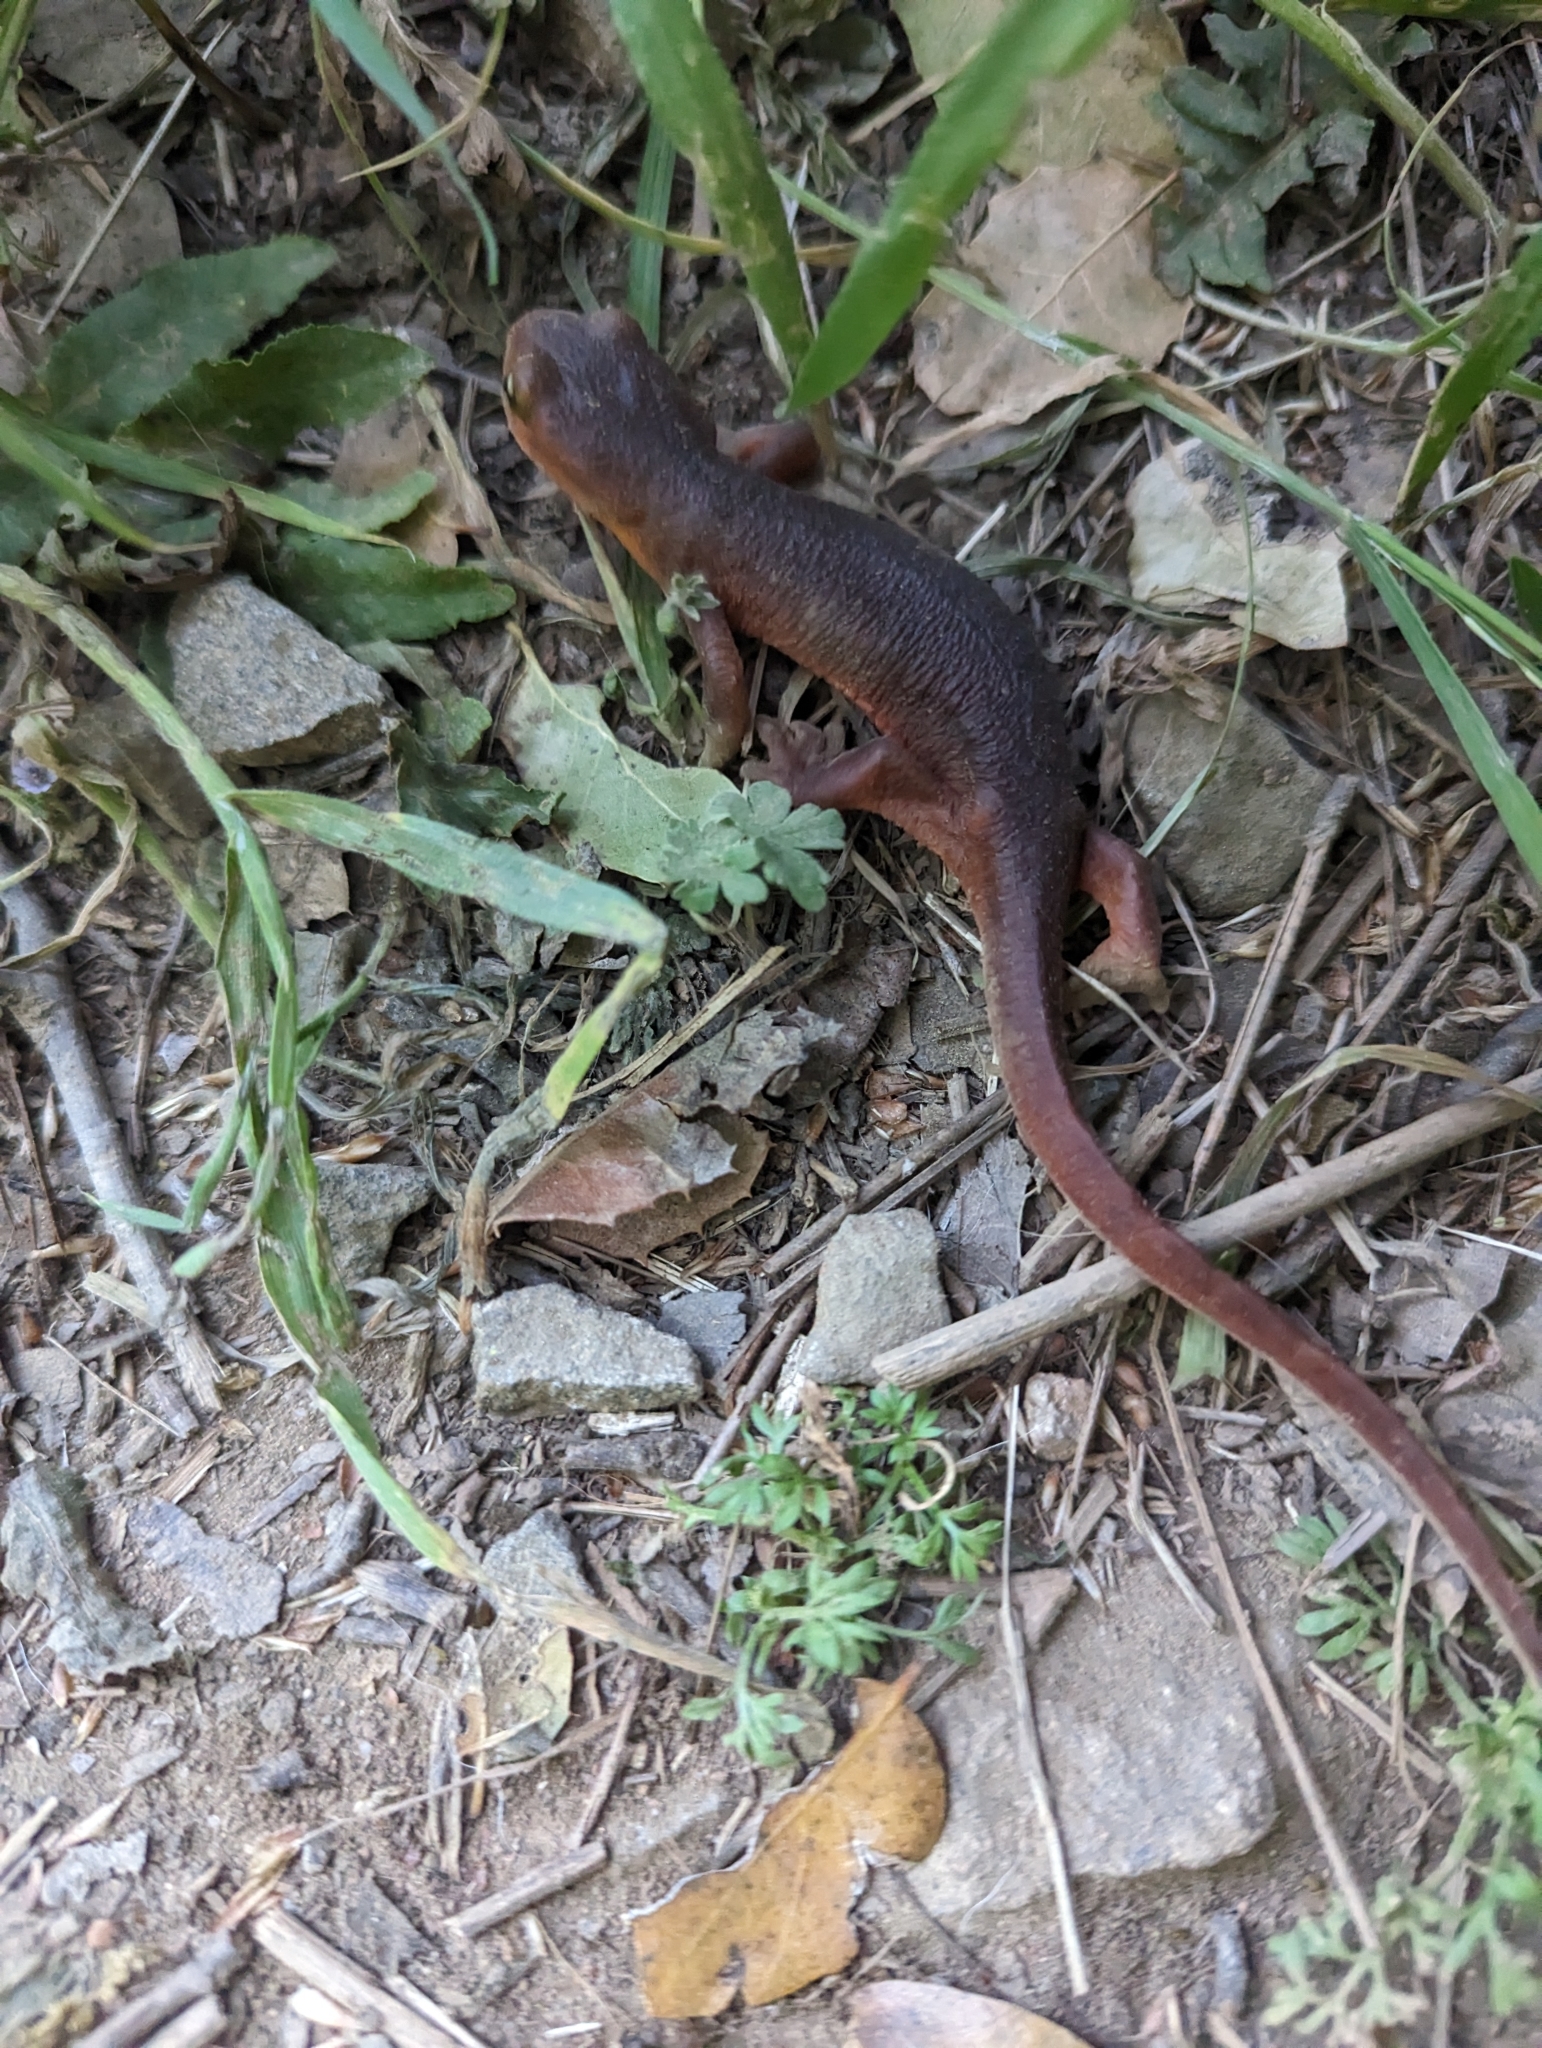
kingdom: Animalia
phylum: Chordata
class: Amphibia
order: Caudata
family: Salamandridae
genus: Taricha
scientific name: Taricha sierrae
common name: Sierra newt
